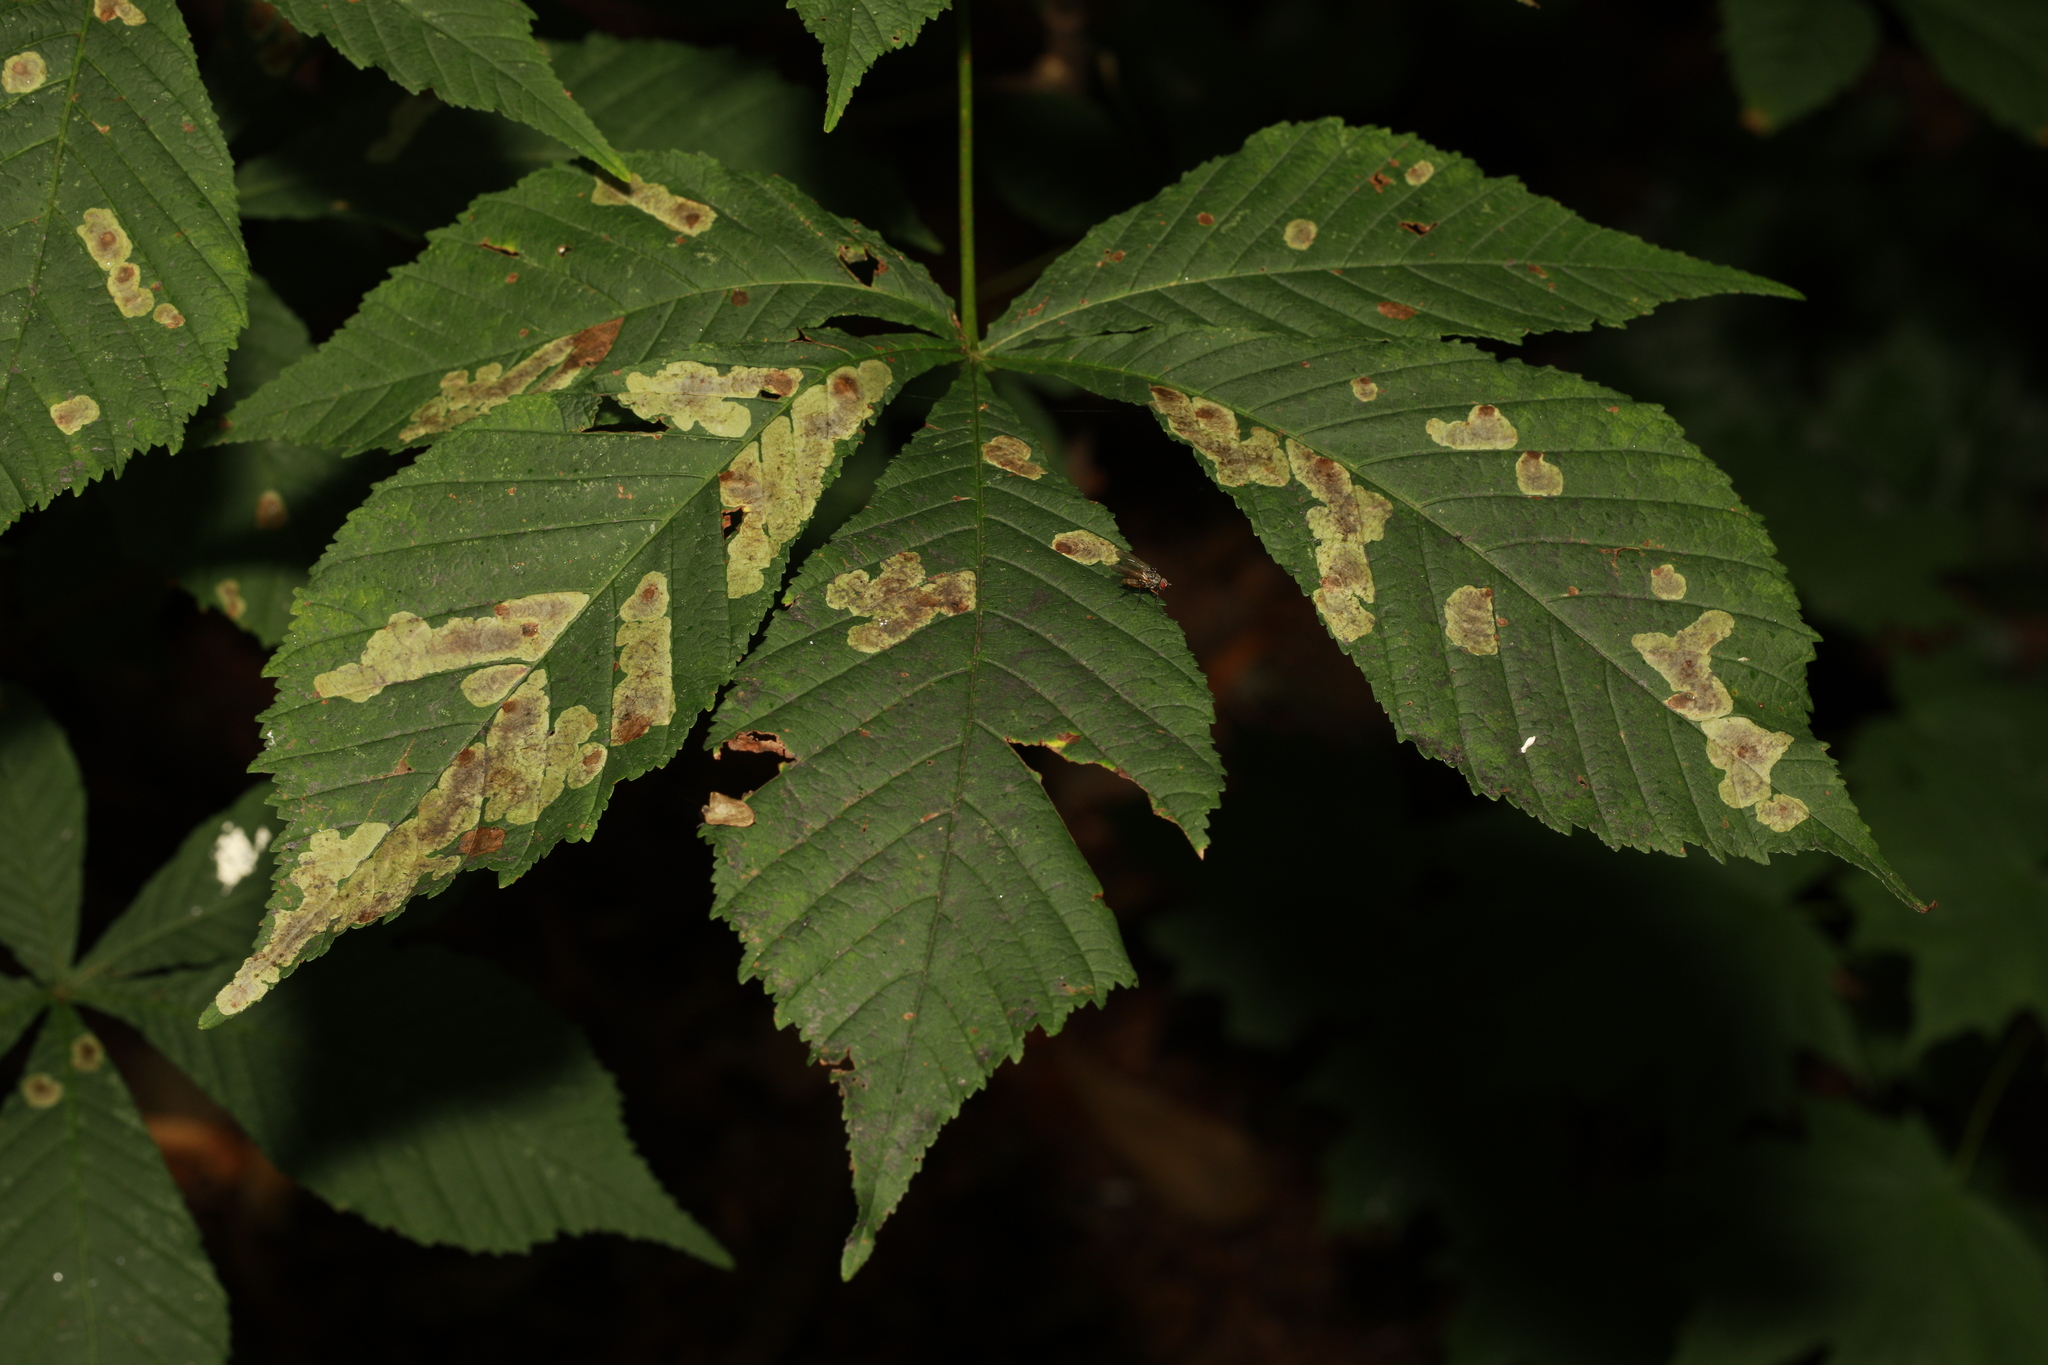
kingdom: Animalia
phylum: Arthropoda
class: Insecta
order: Lepidoptera
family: Gracillariidae
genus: Cameraria
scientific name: Cameraria ohridella
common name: Horse-chestnut leaf-miner
